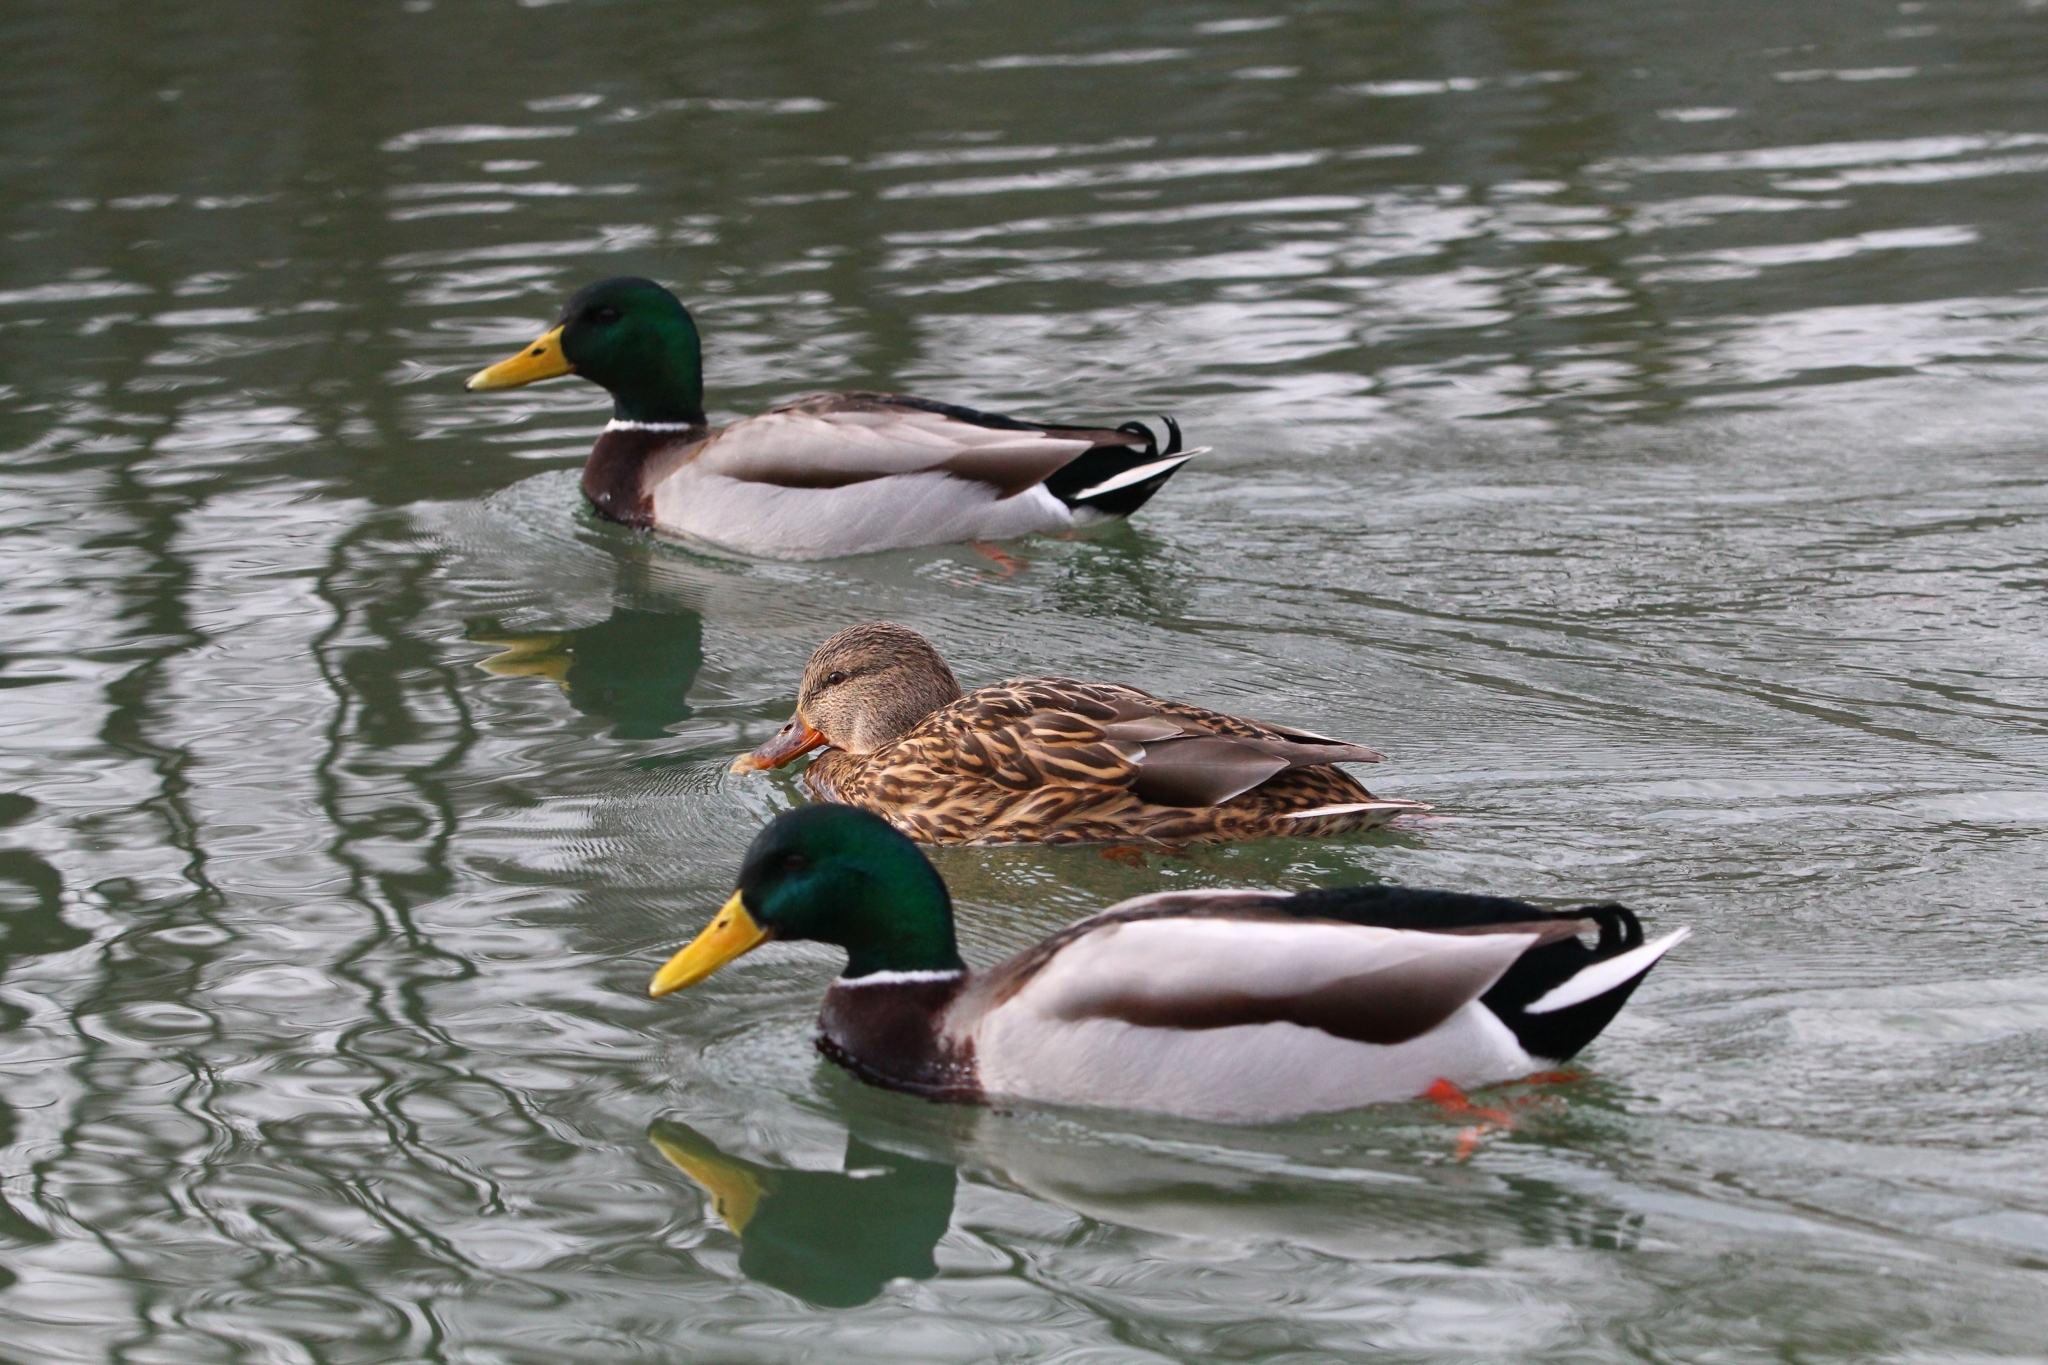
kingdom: Animalia
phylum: Chordata
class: Aves
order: Anseriformes
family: Anatidae
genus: Anas
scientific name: Anas platyrhynchos
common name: Mallard
